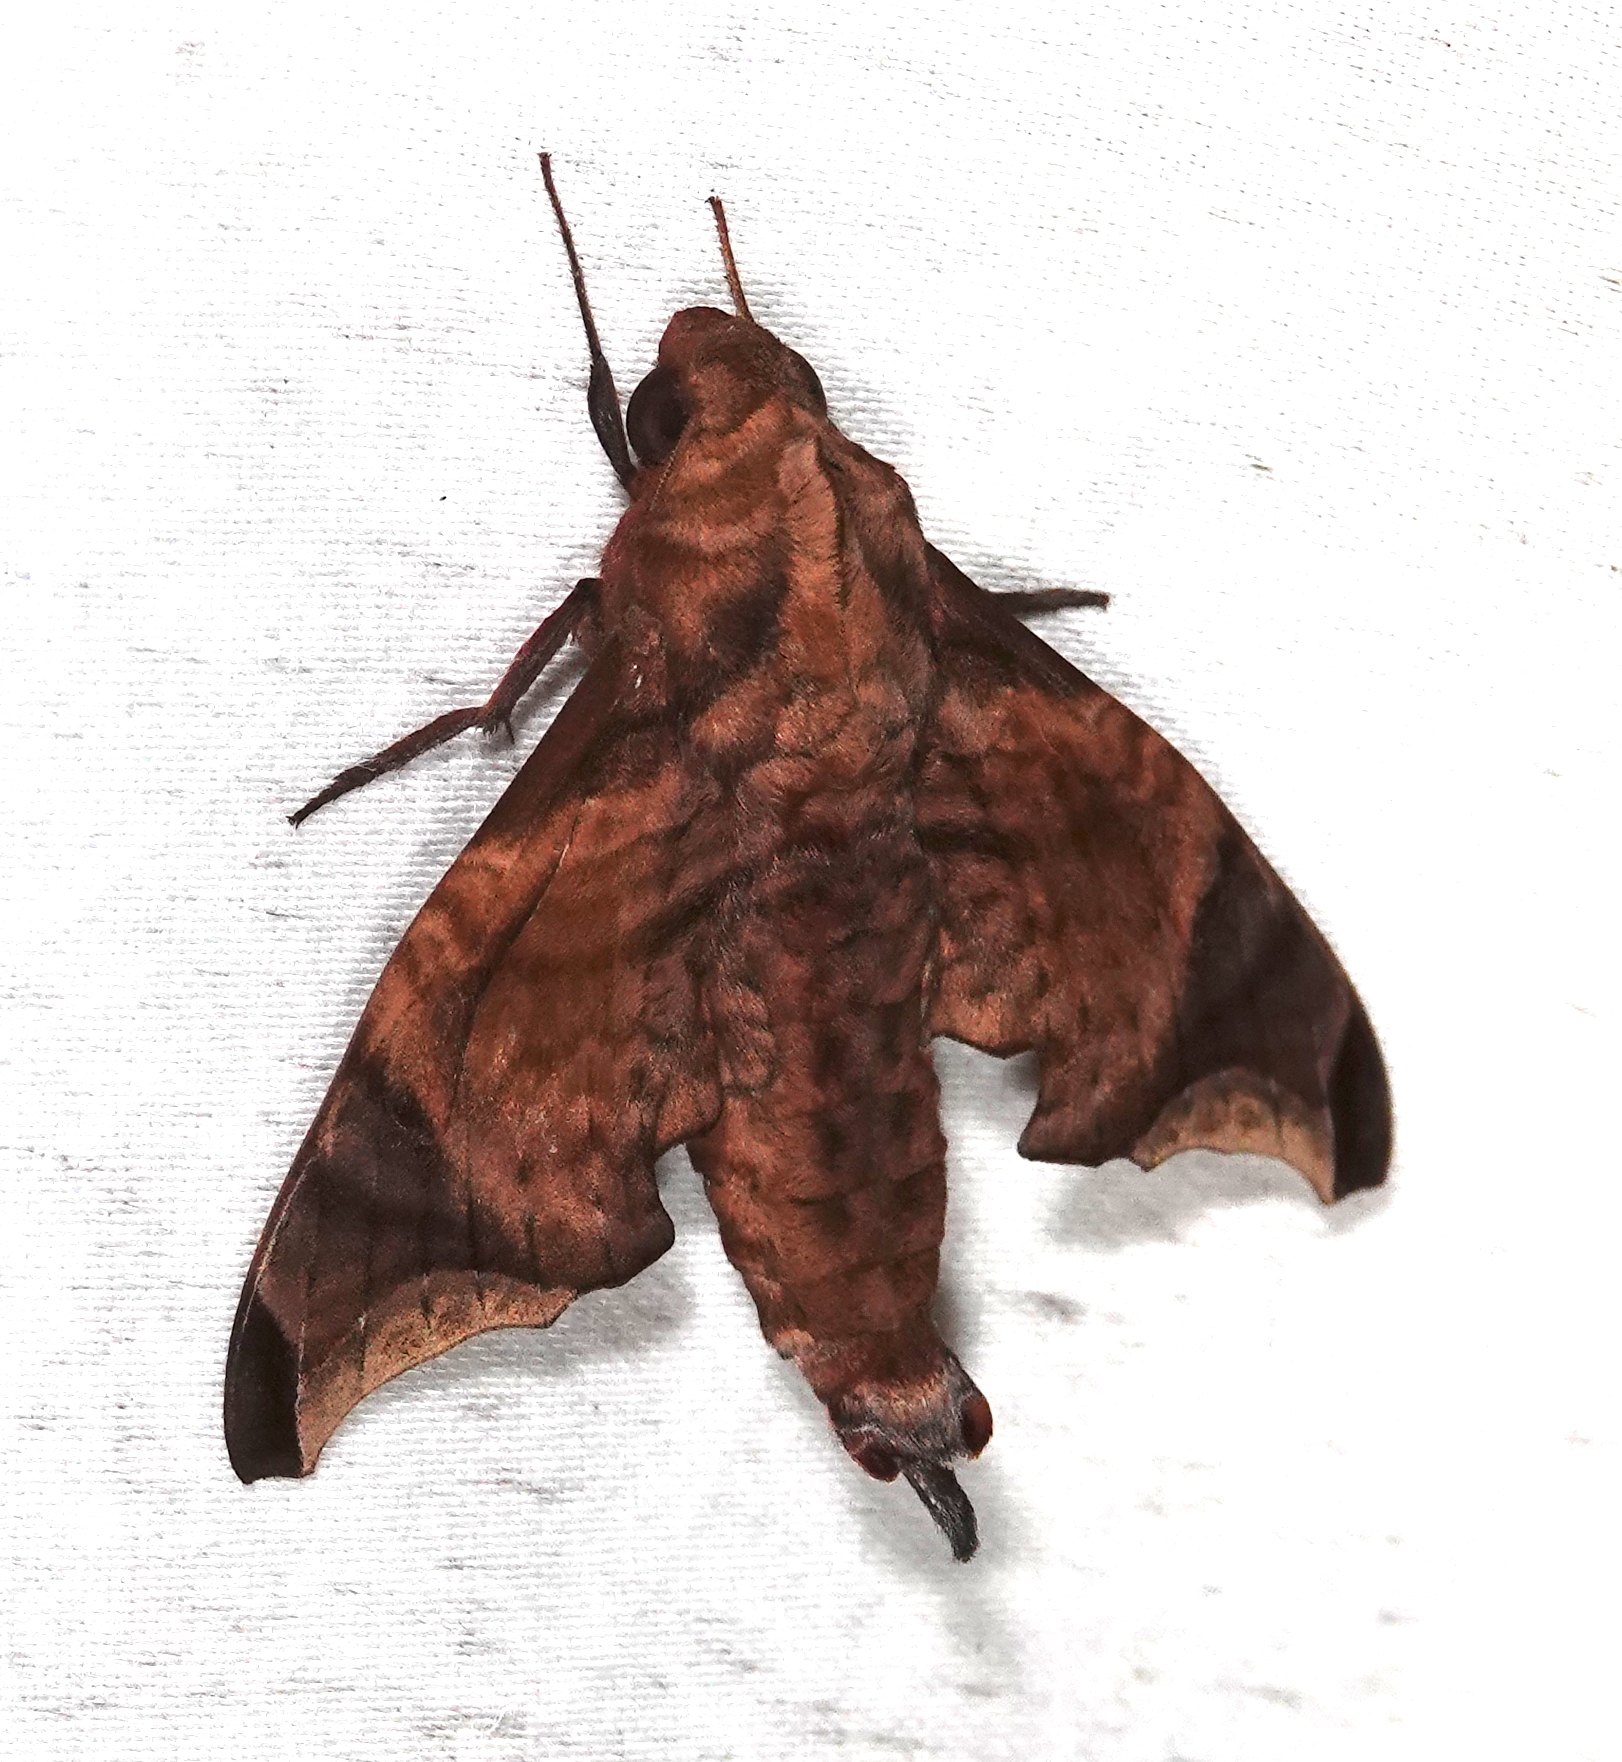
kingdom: Animalia
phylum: Arthropoda
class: Insecta
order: Lepidoptera
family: Sphingidae
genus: Enyo
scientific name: Enyo taedium
